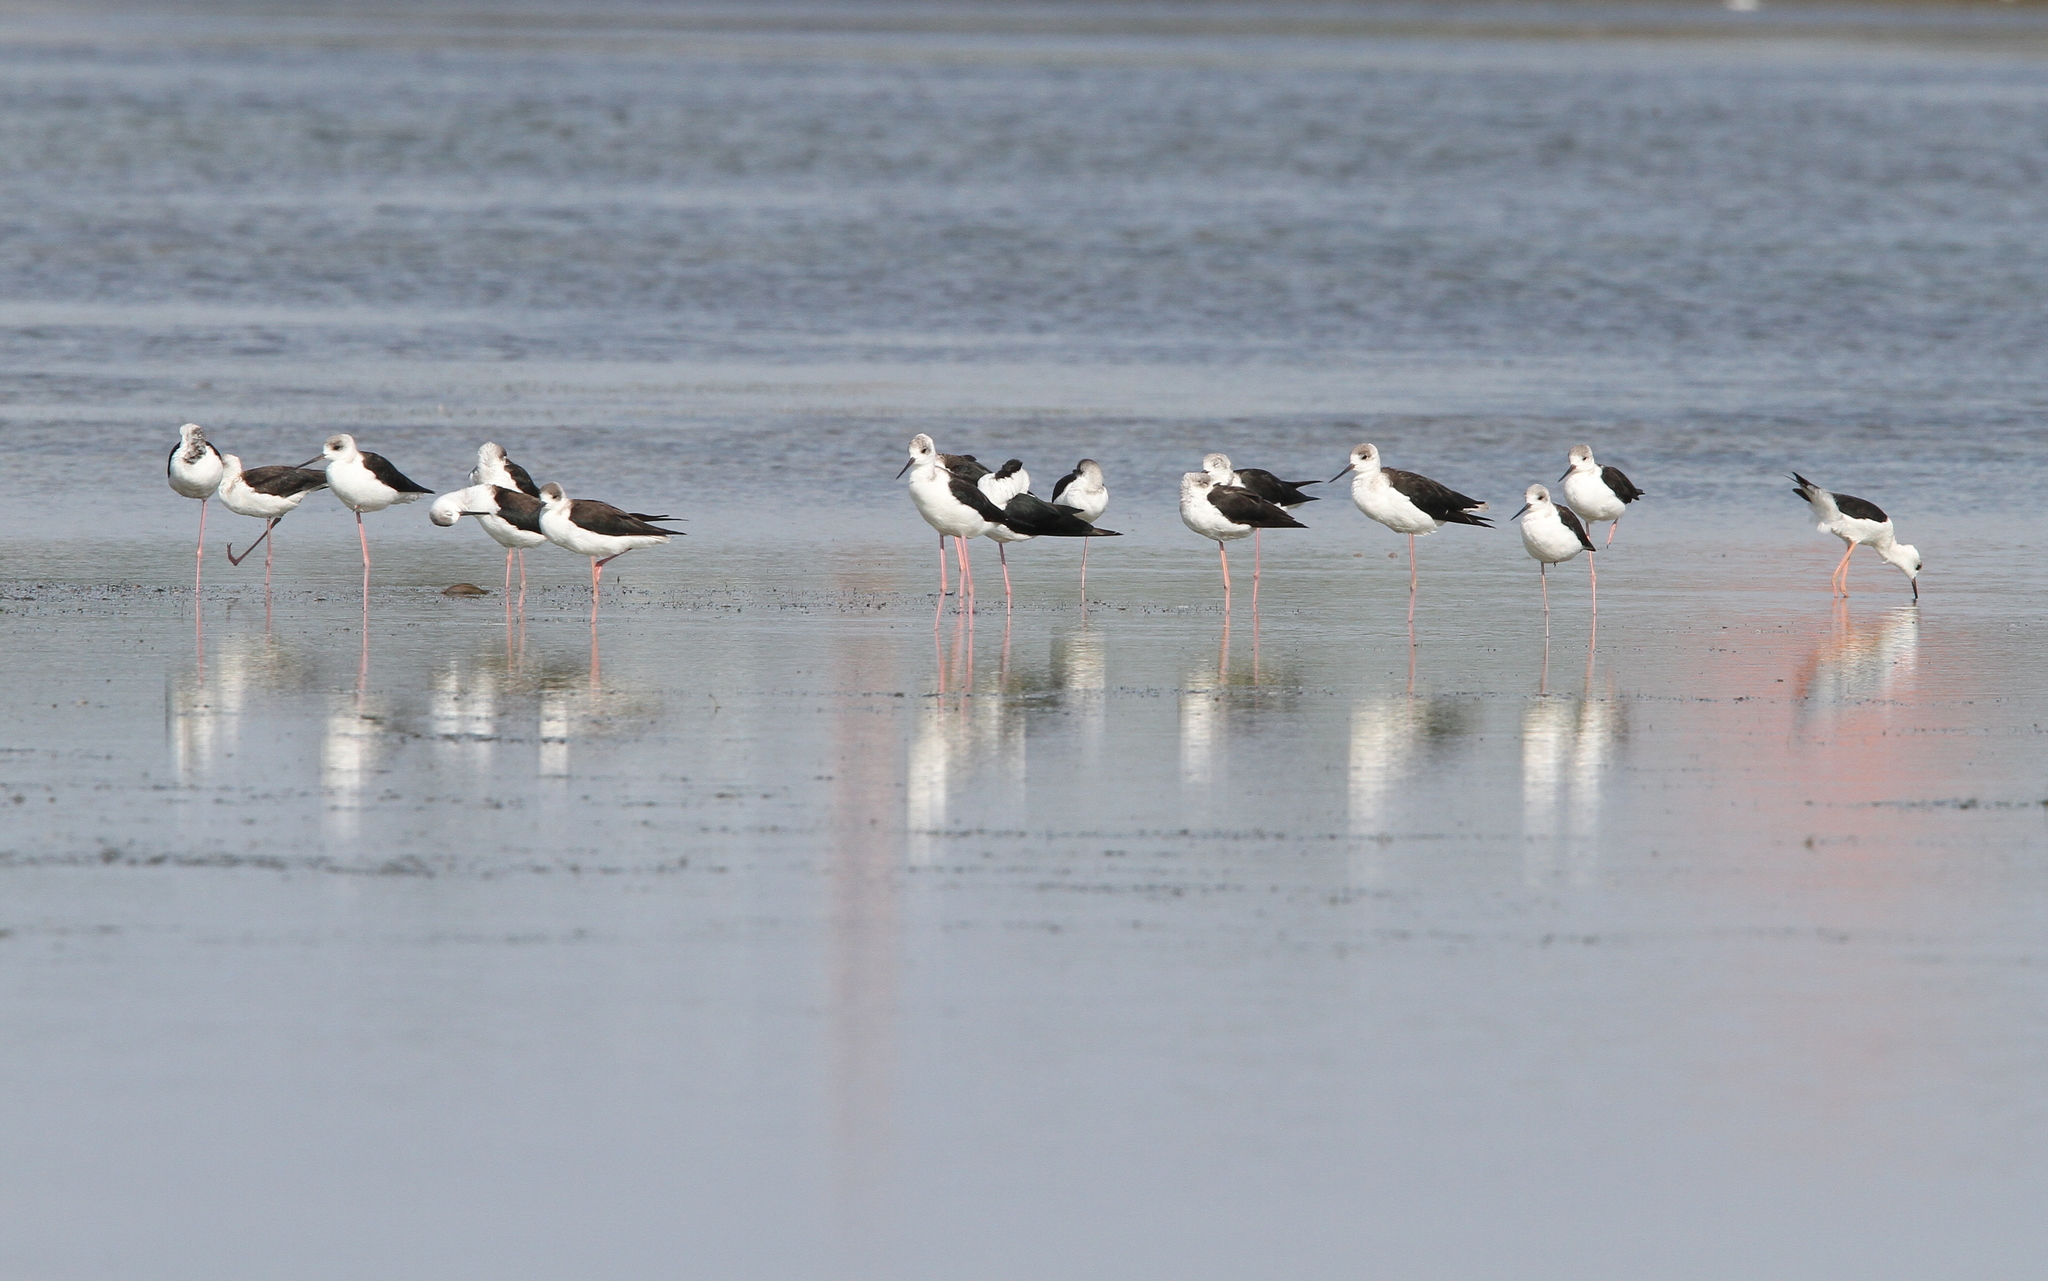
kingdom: Animalia
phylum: Chordata
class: Aves
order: Charadriiformes
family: Recurvirostridae
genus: Himantopus
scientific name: Himantopus leucocephalus
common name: White-headed stilt
